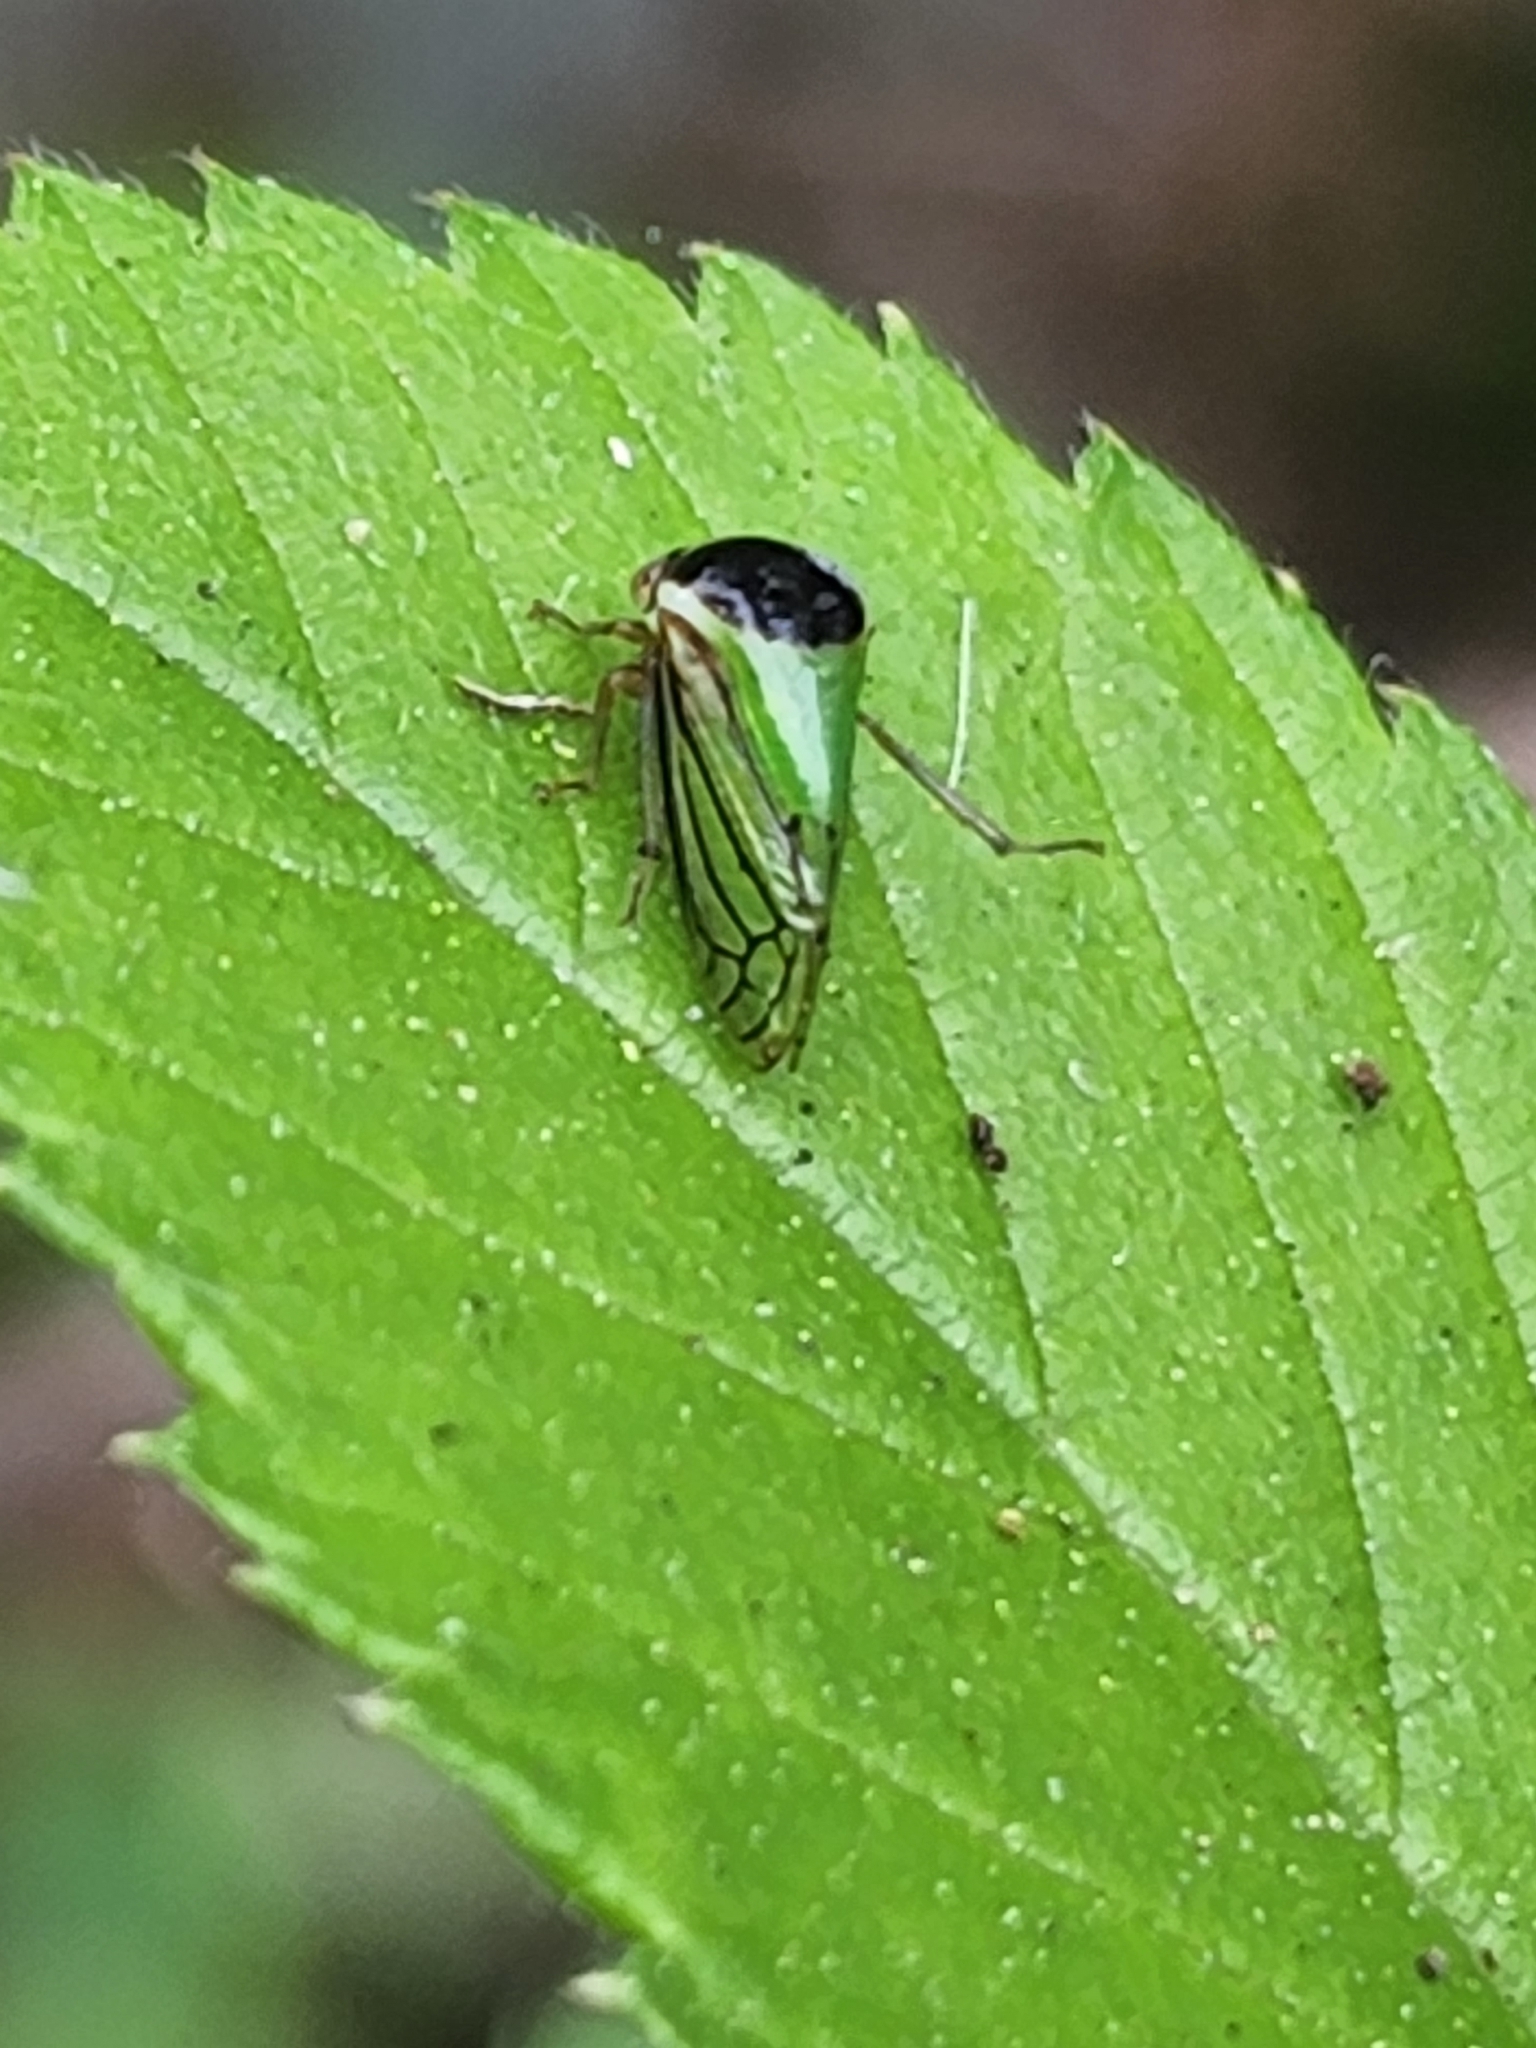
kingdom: Animalia
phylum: Arthropoda
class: Insecta
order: Hemiptera
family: Membracidae
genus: Acutalis
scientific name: Acutalis tartarea
